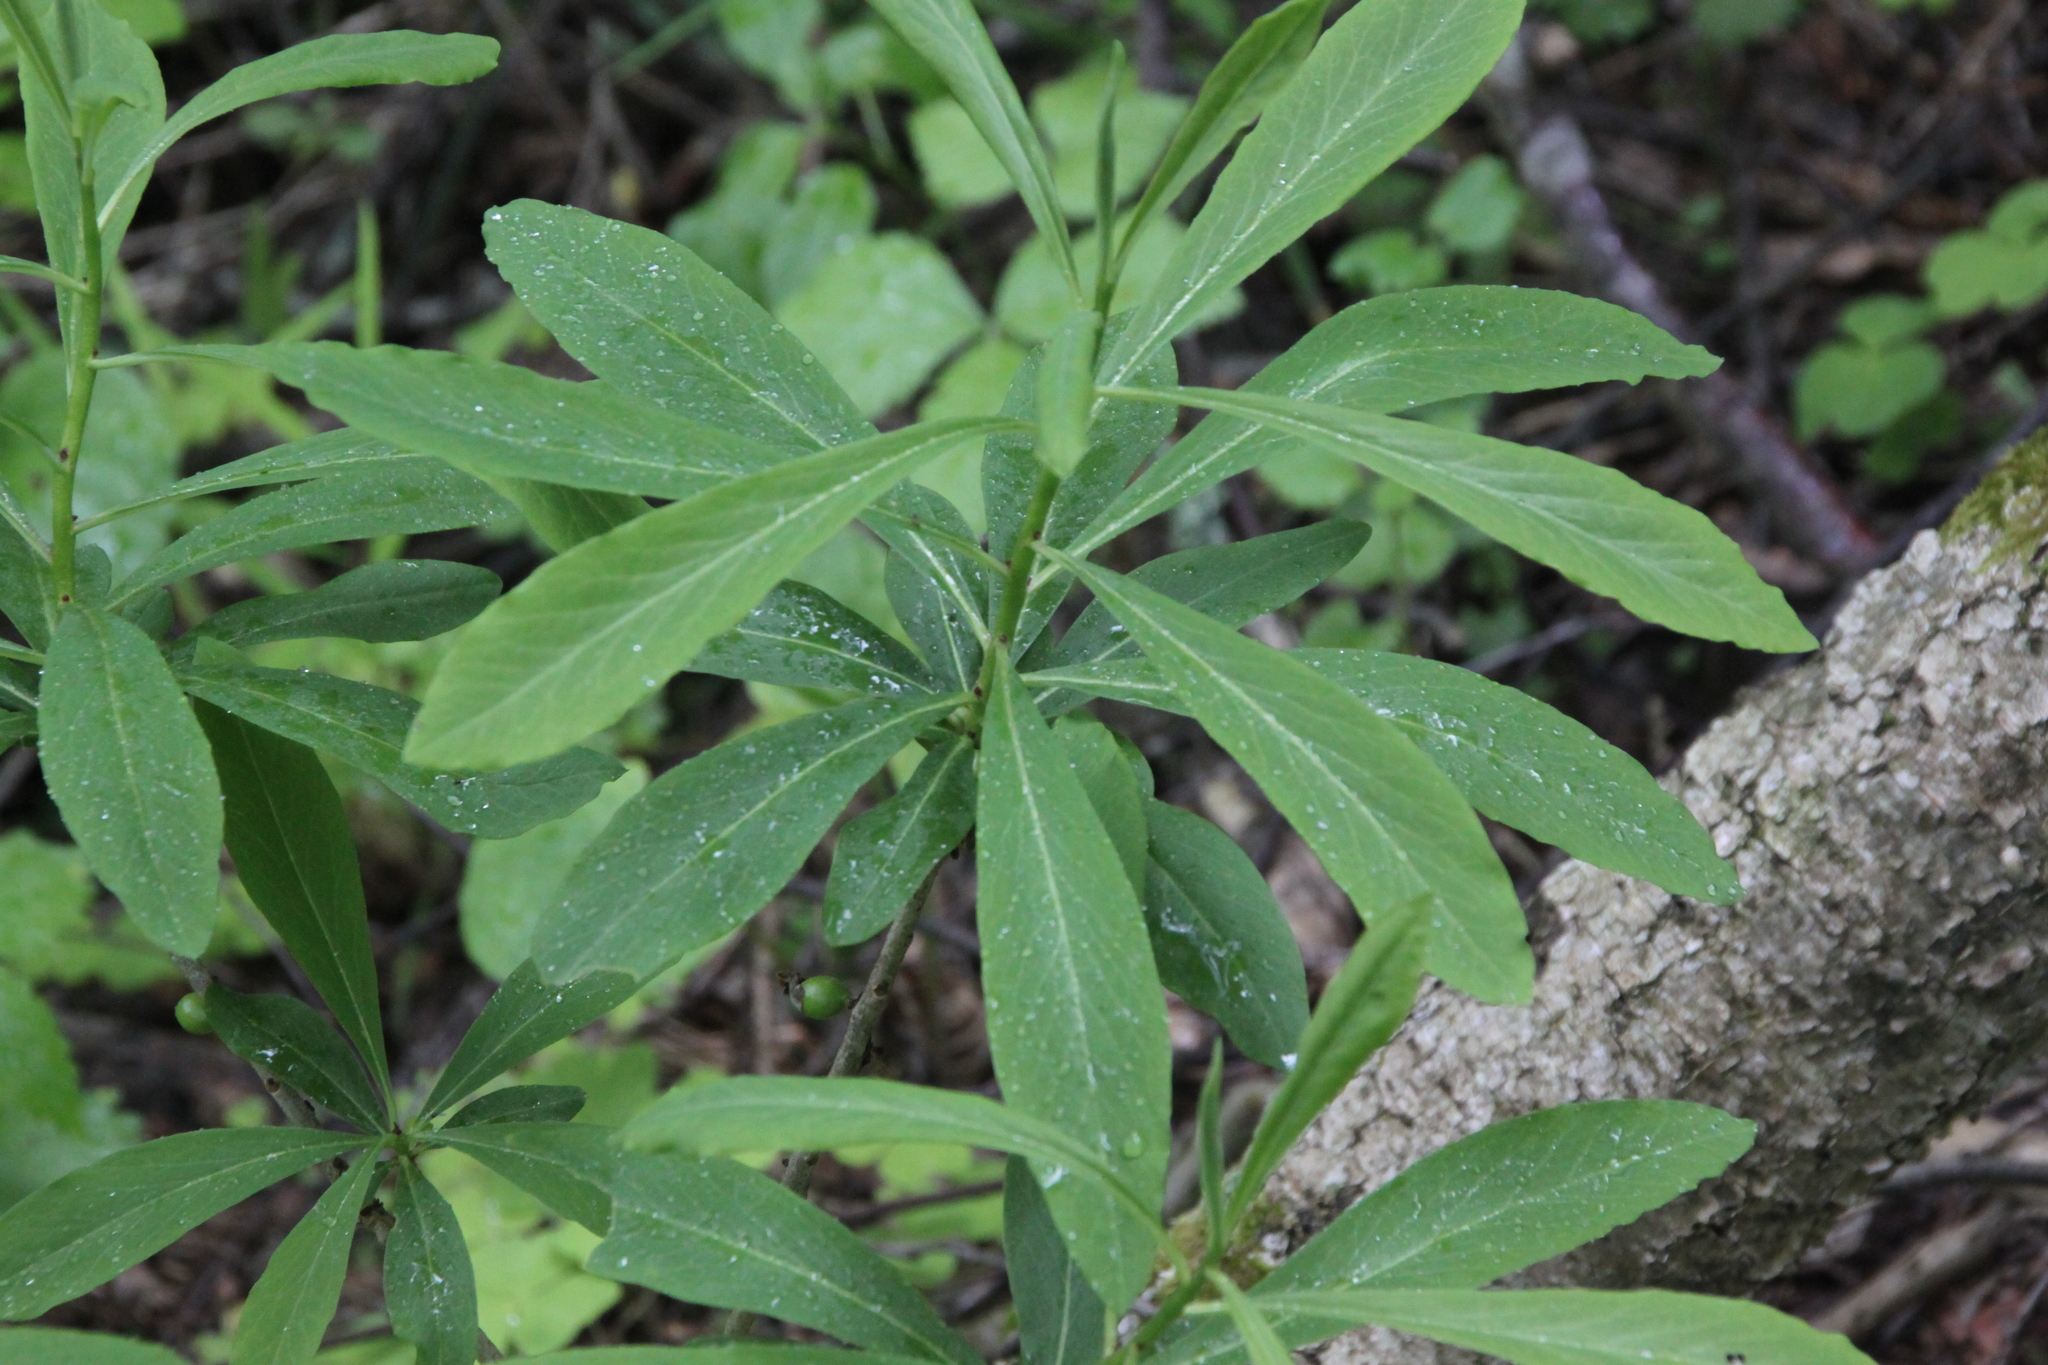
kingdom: Plantae
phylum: Tracheophyta
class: Magnoliopsida
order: Malvales
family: Thymelaeaceae
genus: Daphne
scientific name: Daphne mezereum
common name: Mezereon
